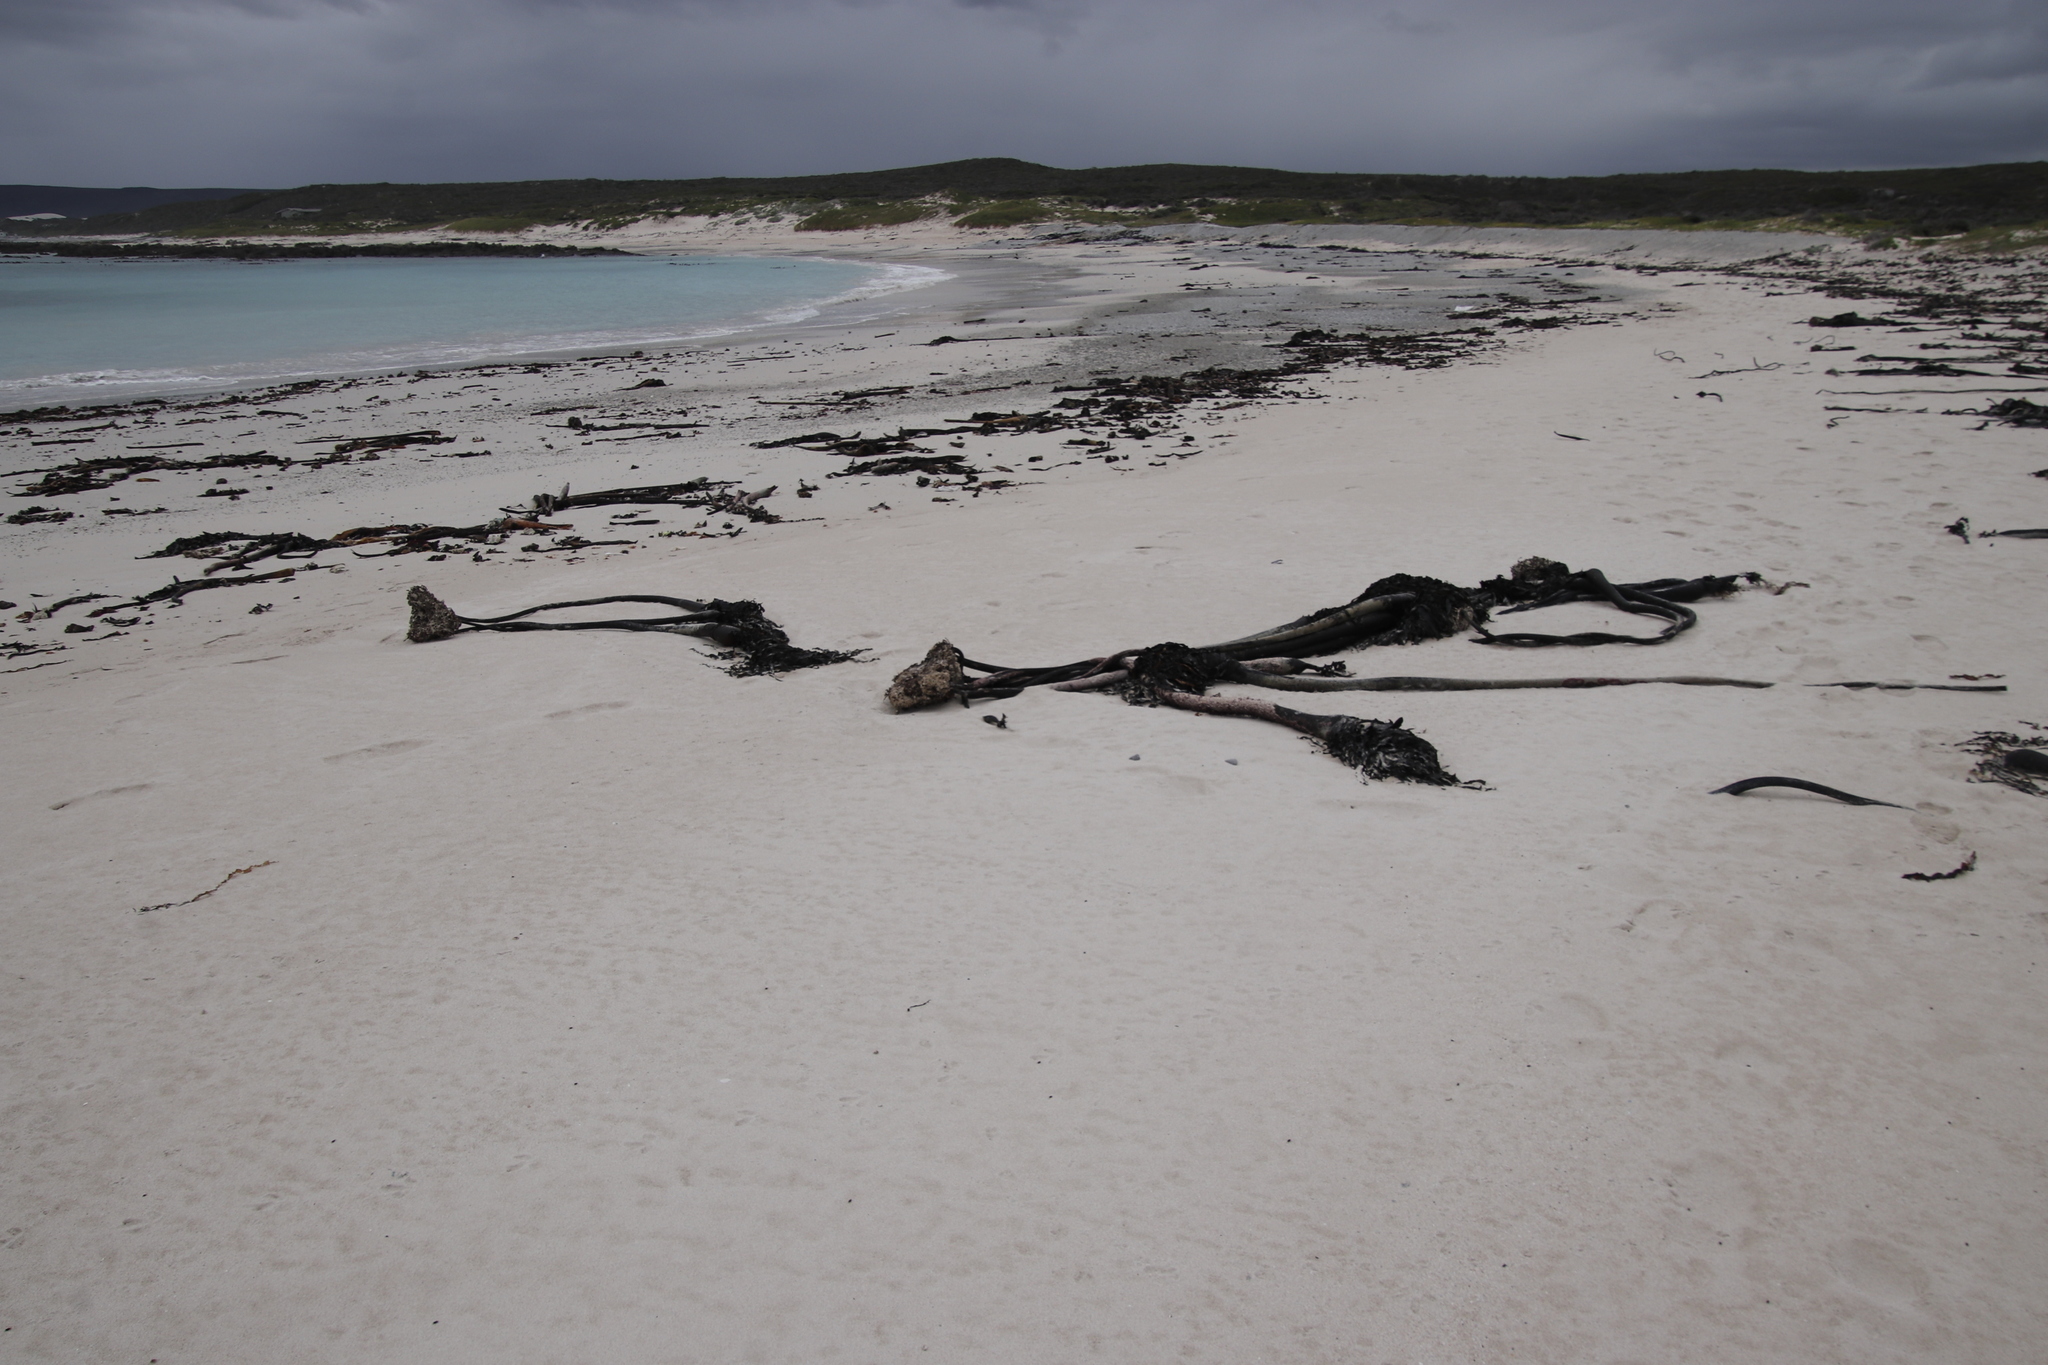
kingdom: Chromista
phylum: Ochrophyta
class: Phaeophyceae
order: Laminariales
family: Lessoniaceae
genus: Ecklonia
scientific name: Ecklonia
